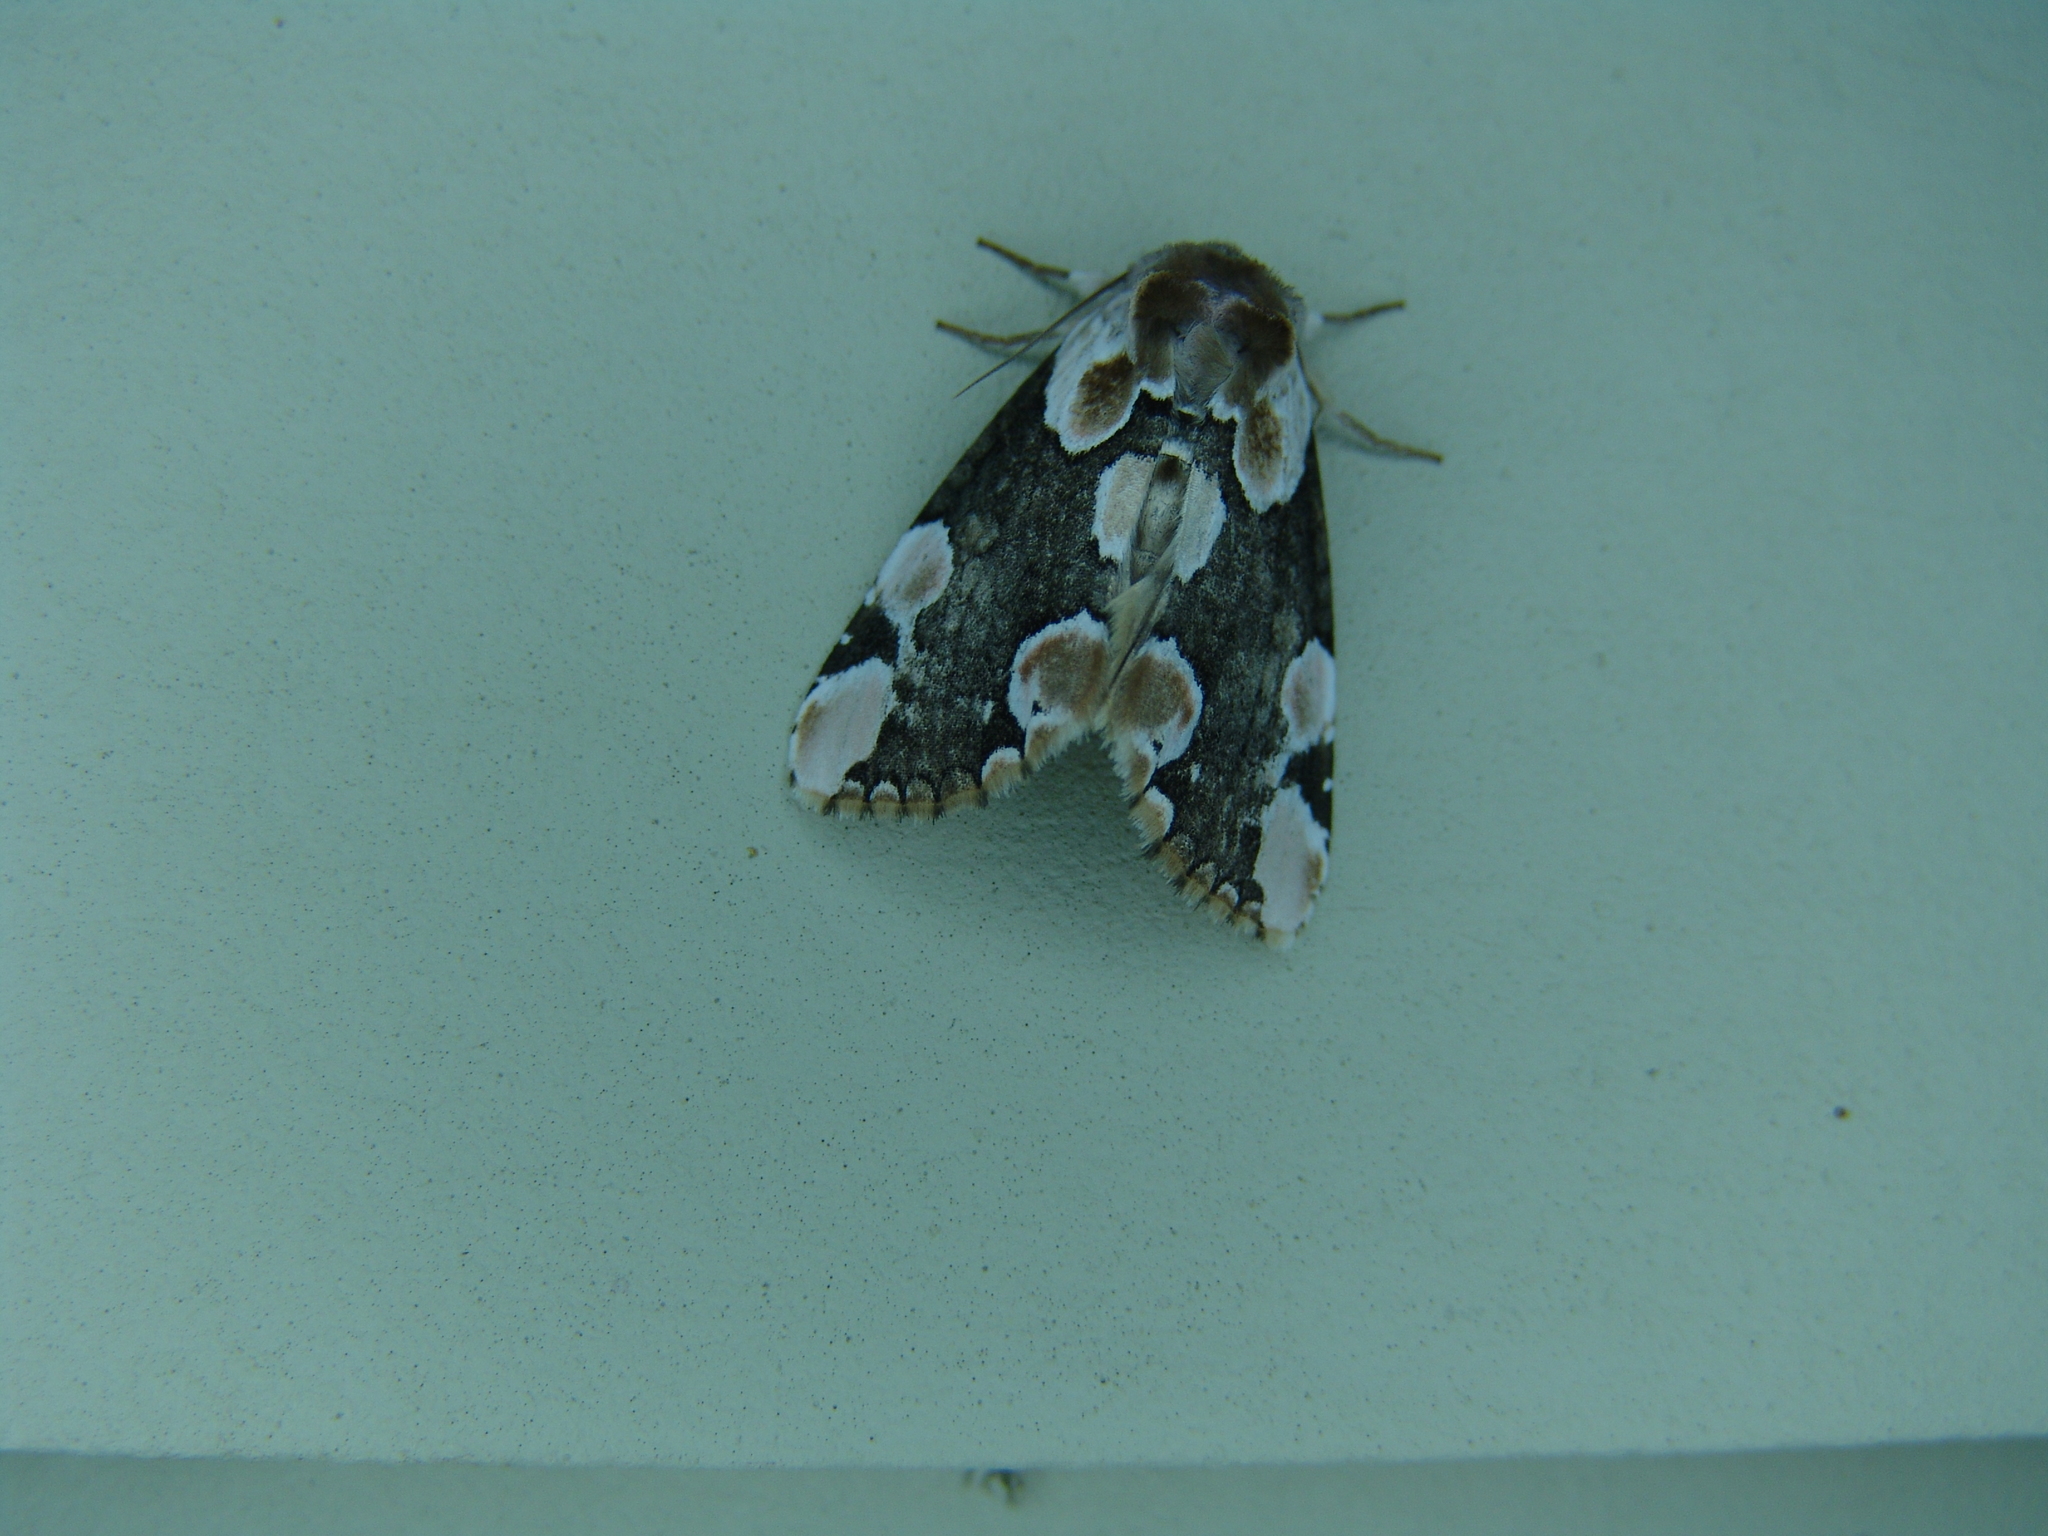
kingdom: Animalia
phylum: Arthropoda
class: Insecta
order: Lepidoptera
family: Drepanidae
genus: Thyatira
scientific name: Thyatira mexicana
